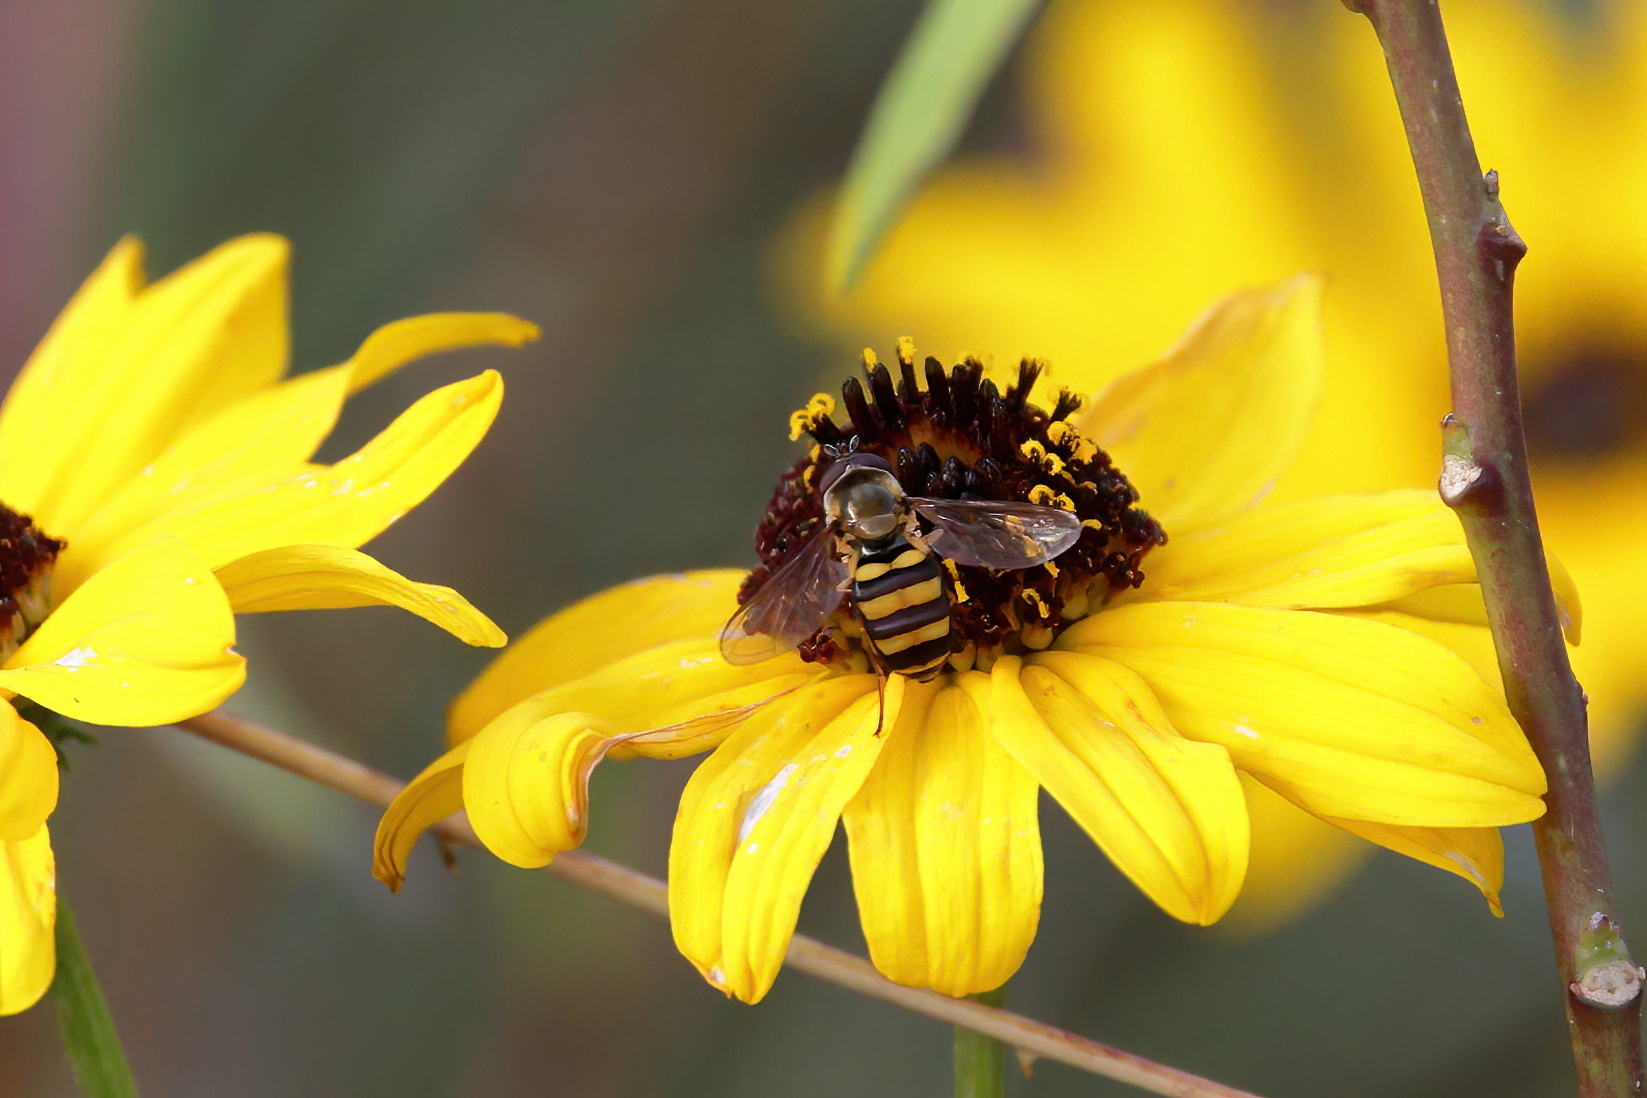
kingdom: Animalia
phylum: Arthropoda
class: Insecta
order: Diptera
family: Syrphidae
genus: Eupeodes
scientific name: Eupeodes
